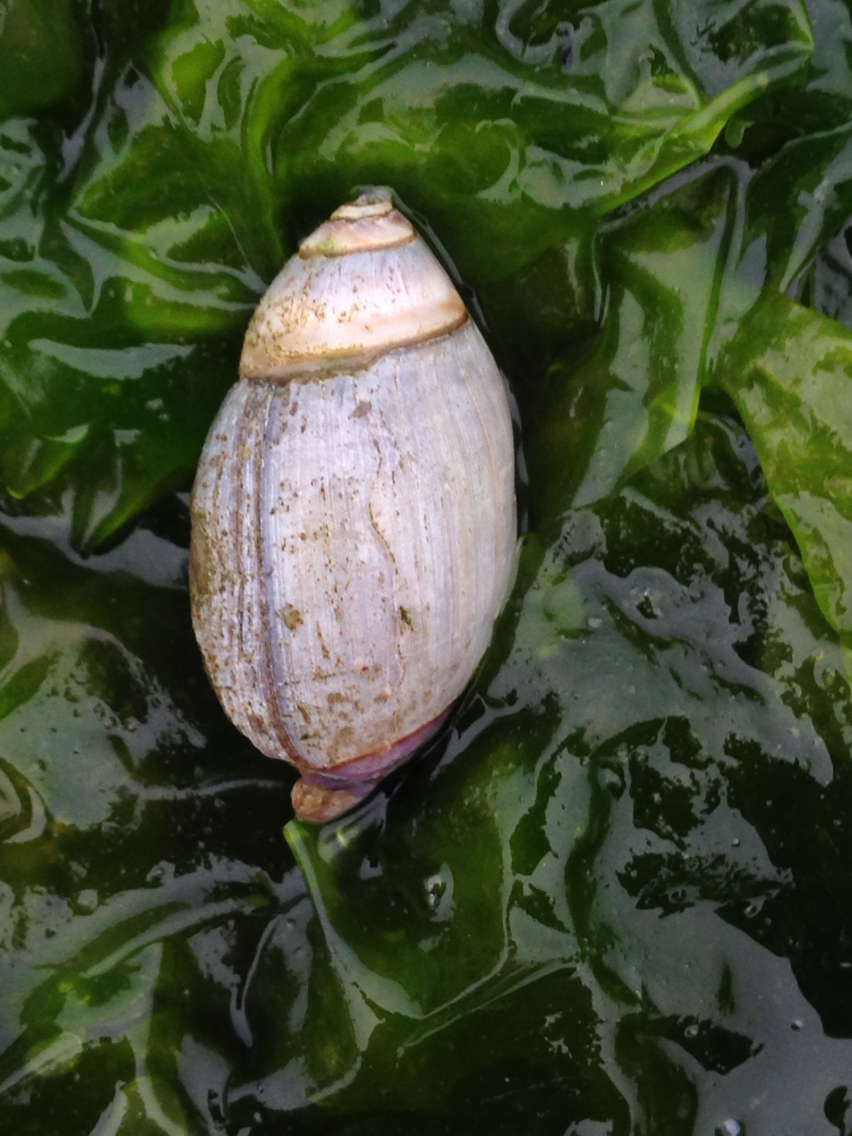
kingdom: Animalia
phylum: Mollusca
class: Gastropoda
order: Neogastropoda
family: Olividae
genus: Callianax
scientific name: Callianax biplicata
